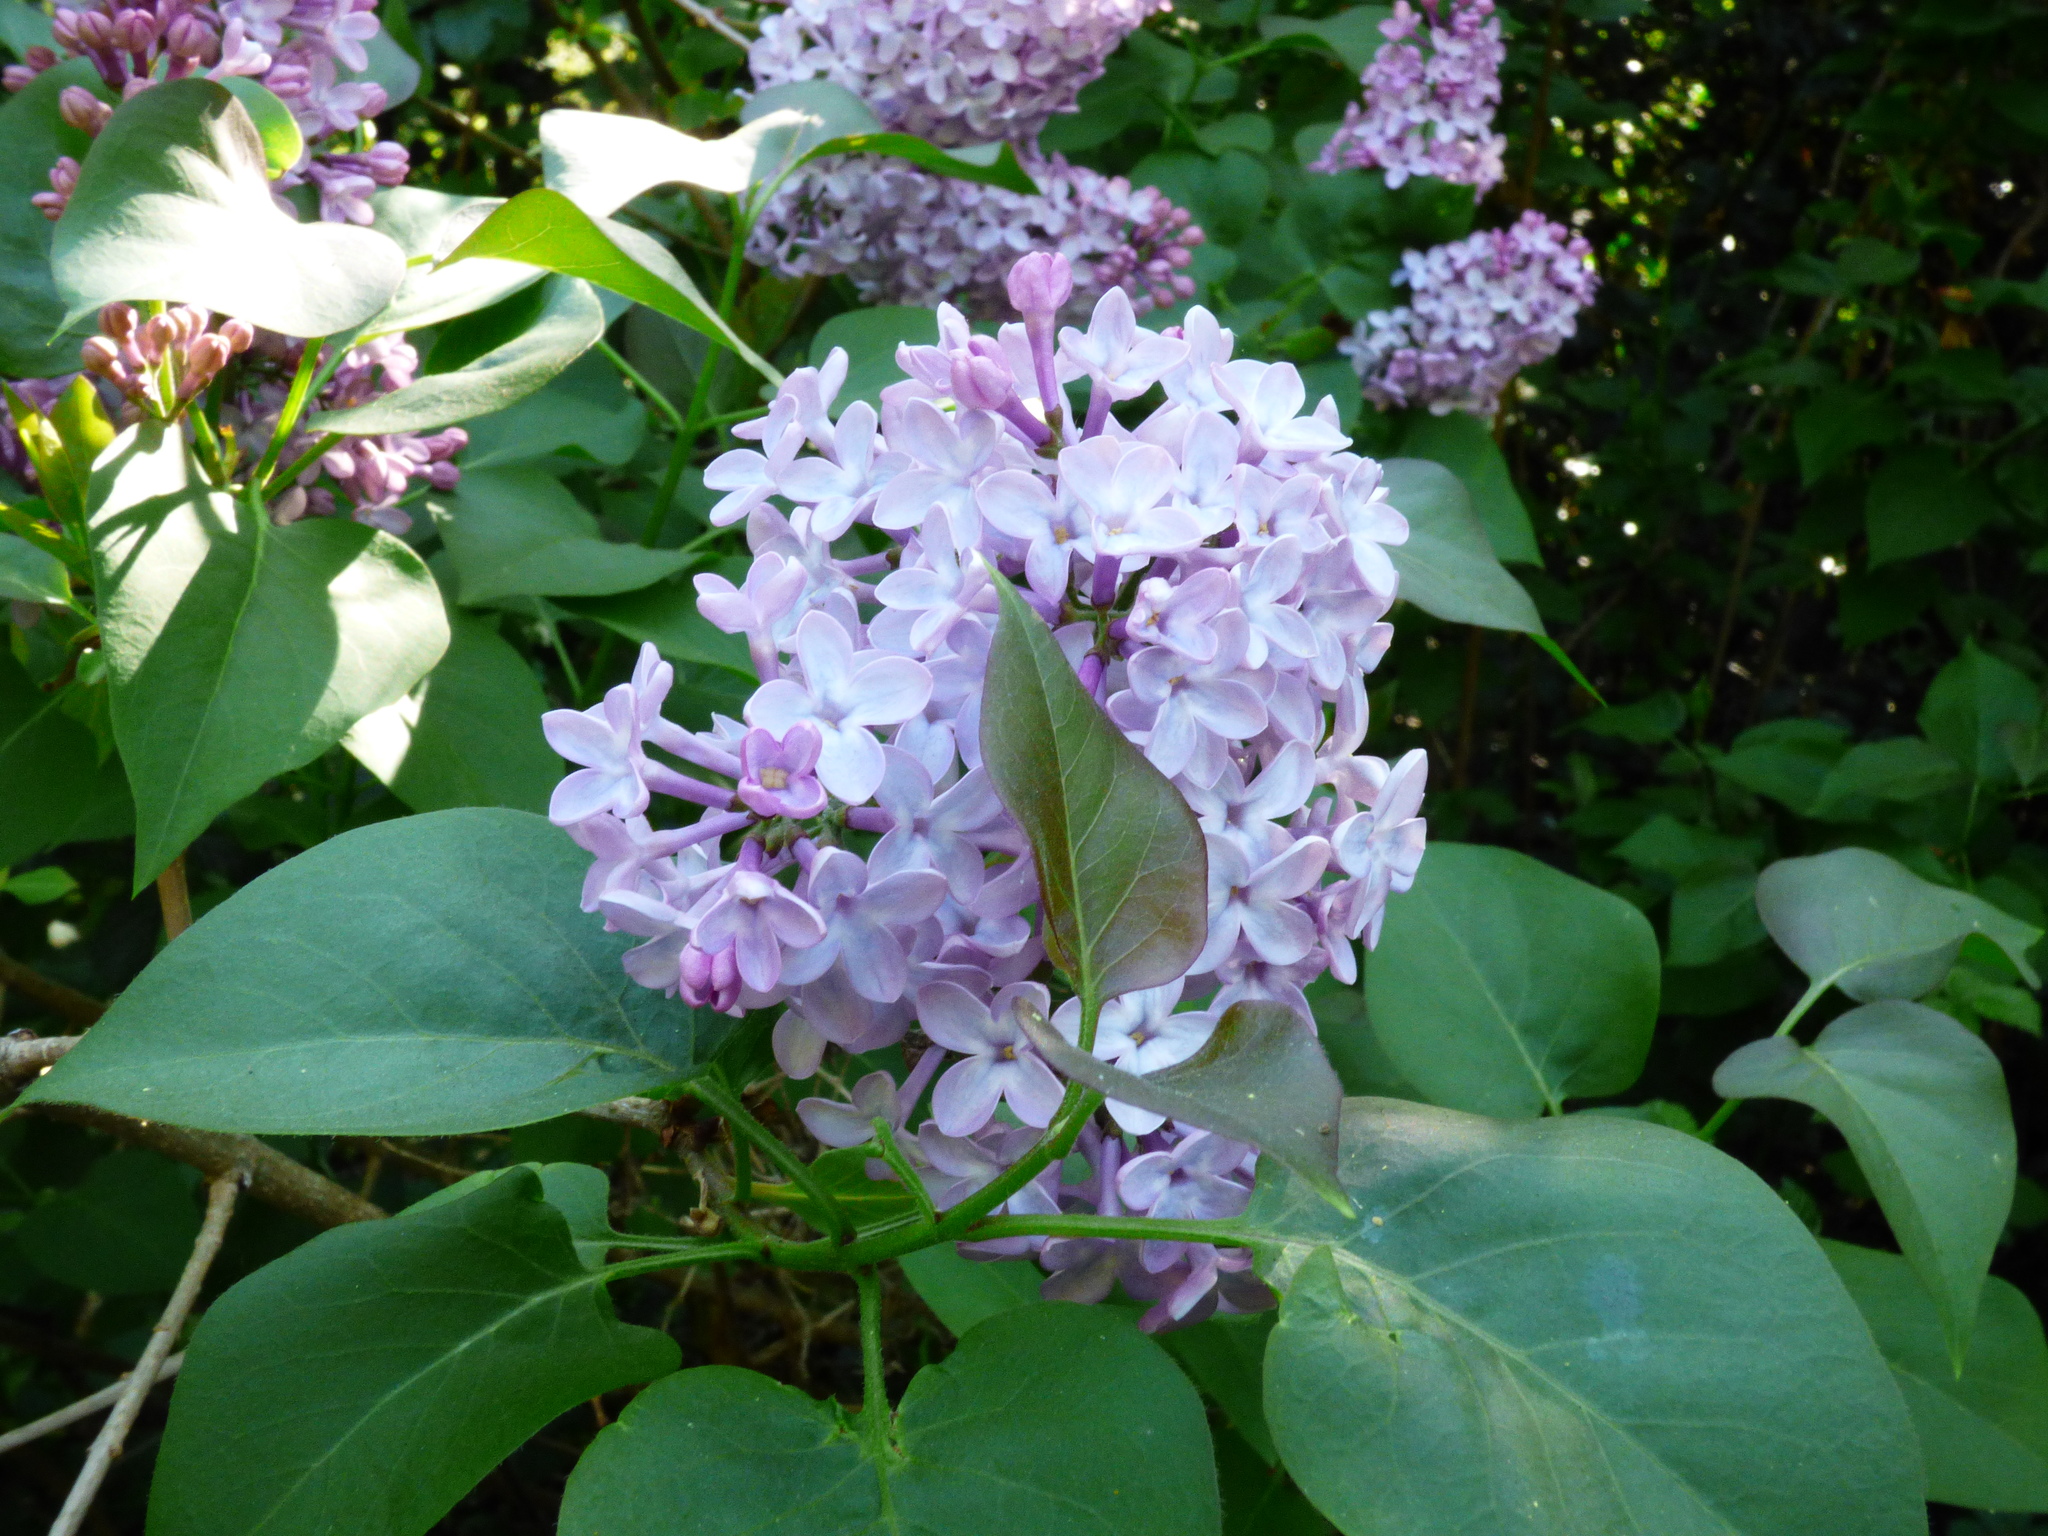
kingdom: Plantae
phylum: Tracheophyta
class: Magnoliopsida
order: Lamiales
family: Oleaceae
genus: Syringa
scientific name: Syringa vulgaris
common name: Common lilac
